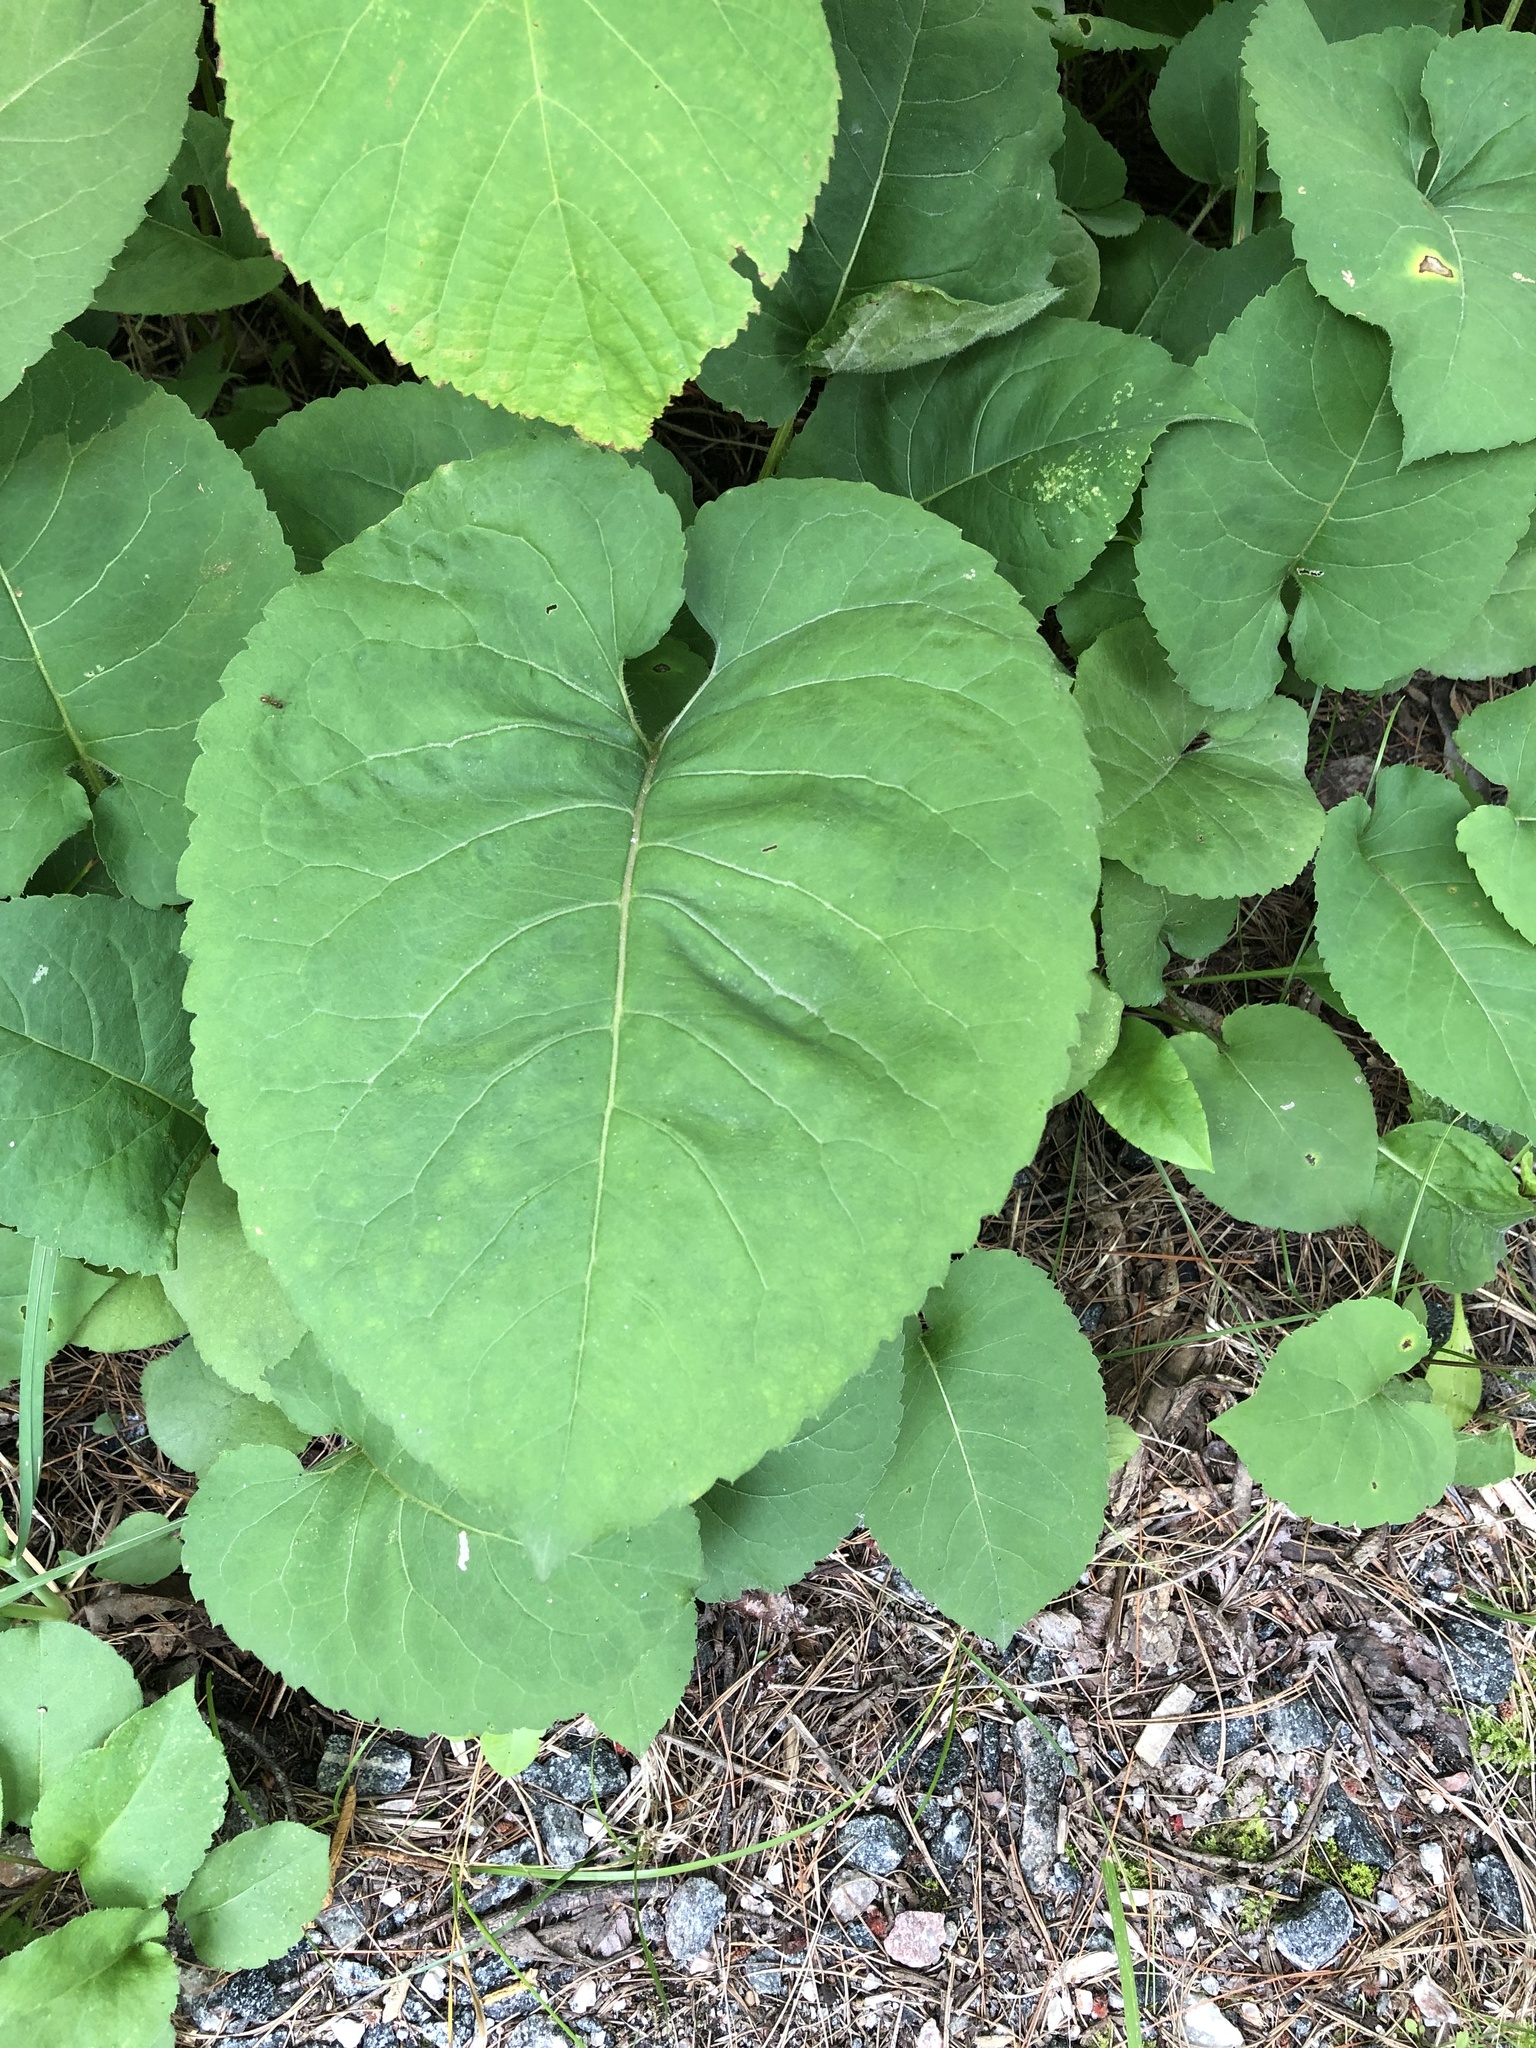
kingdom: Plantae
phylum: Tracheophyta
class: Magnoliopsida
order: Asterales
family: Asteraceae
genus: Eurybia
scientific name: Eurybia macrophylla
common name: Big-leaved aster
